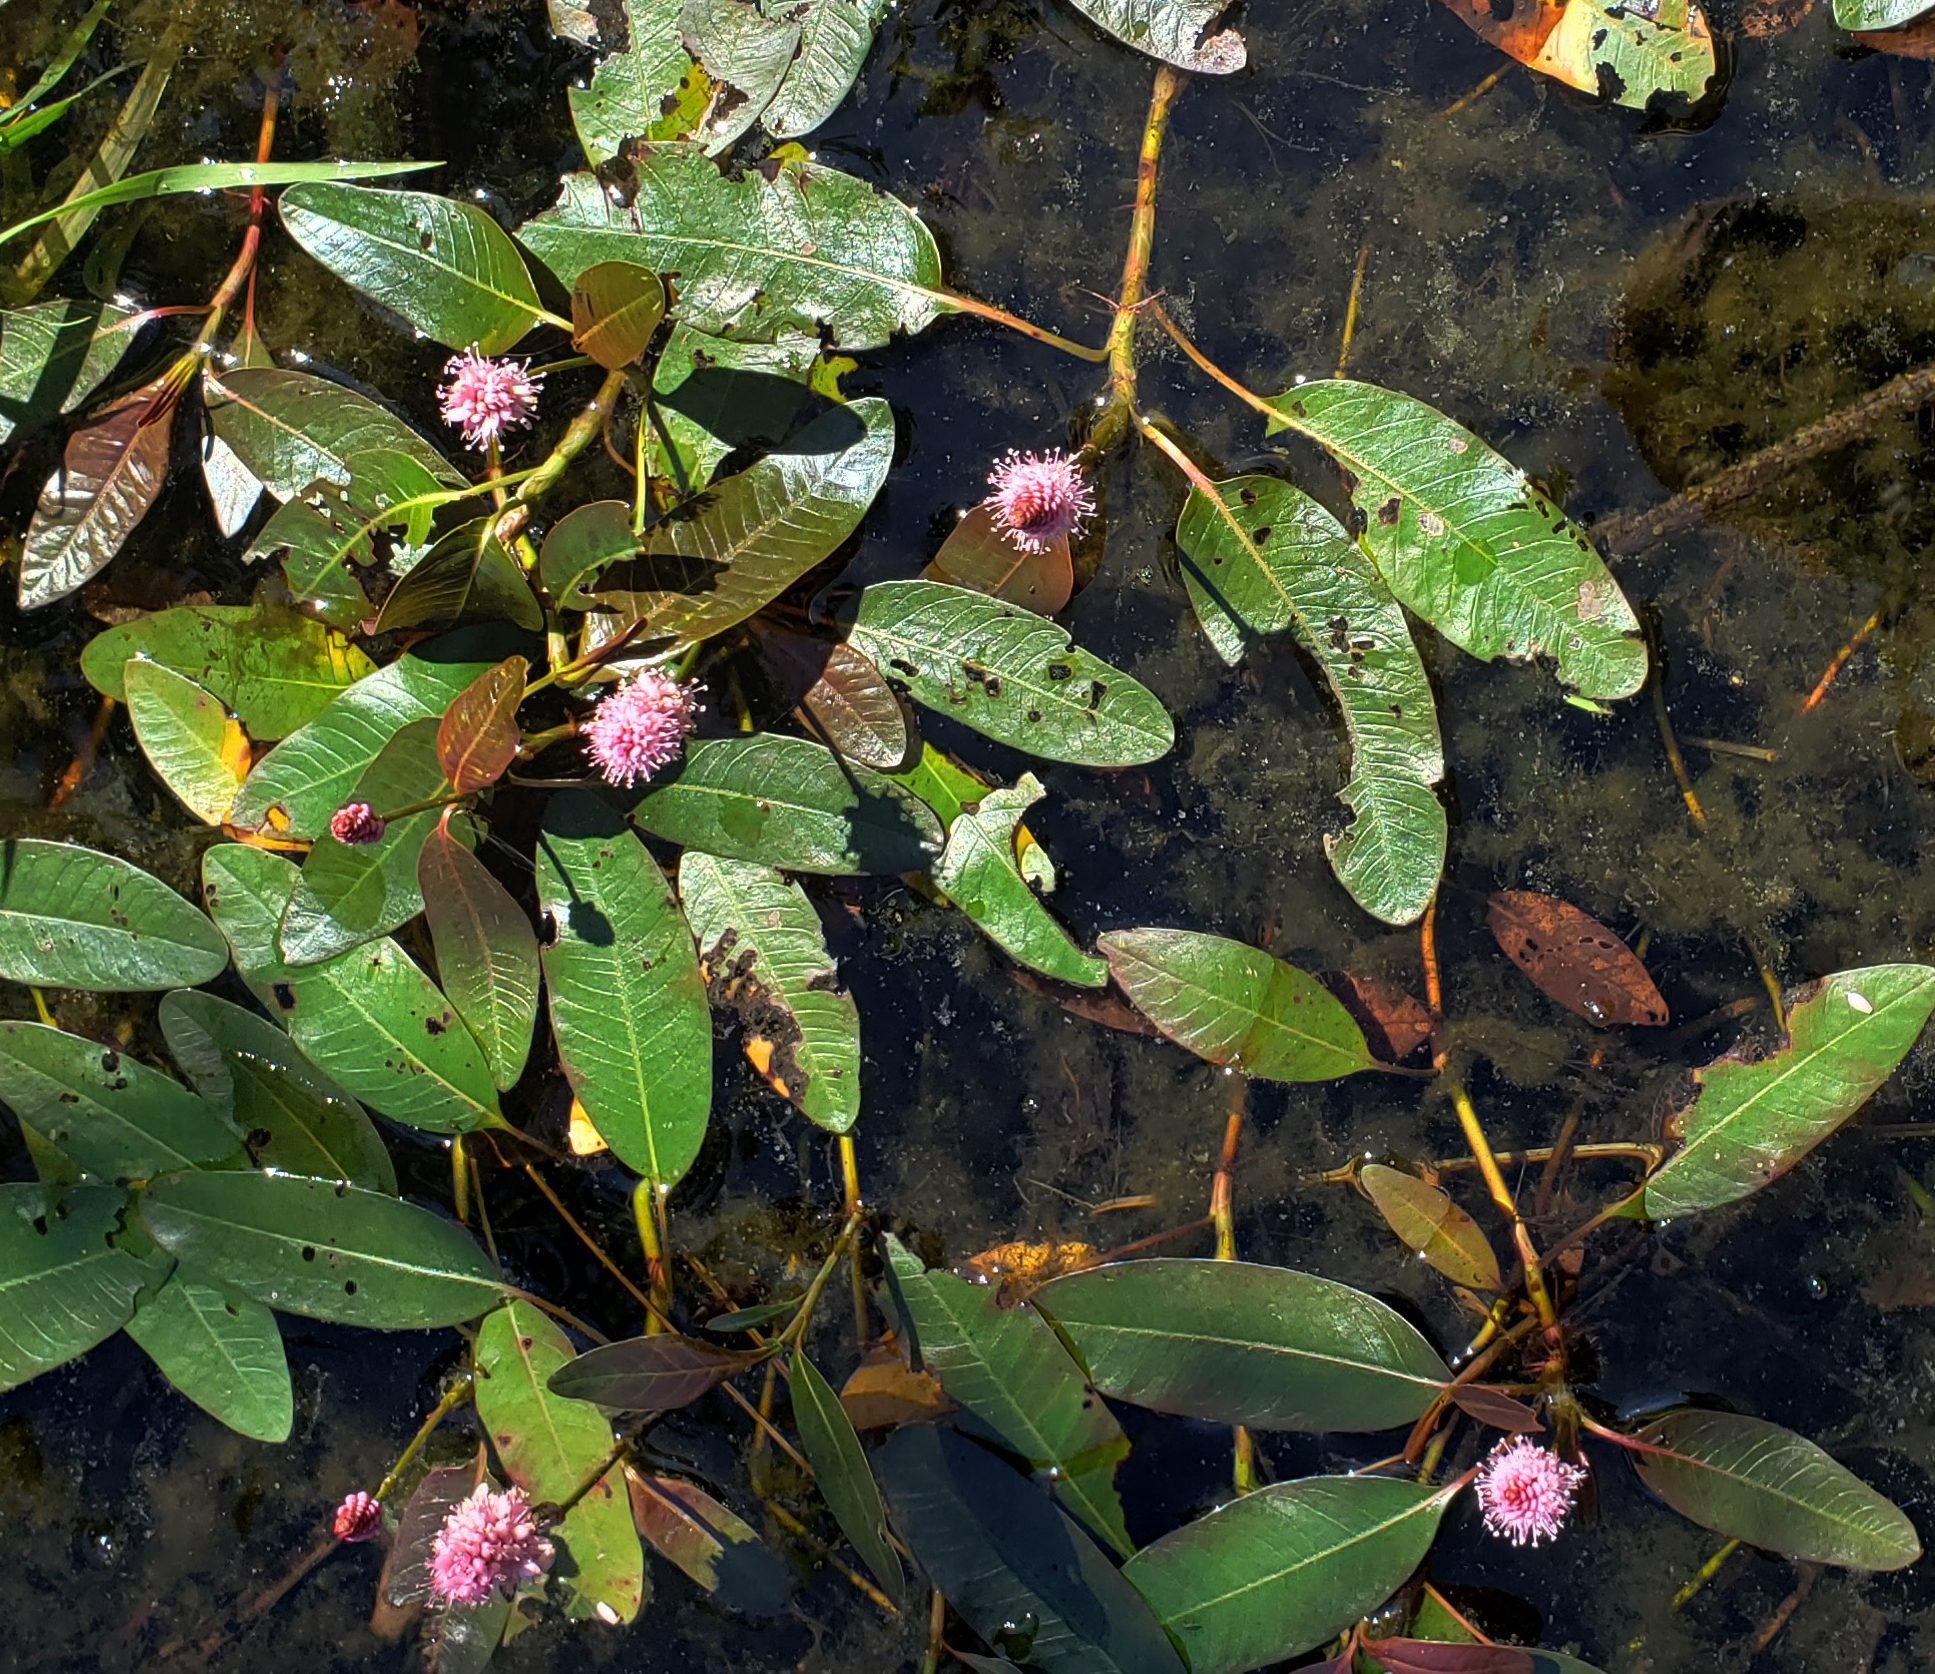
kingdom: Plantae
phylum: Tracheophyta
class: Magnoliopsida
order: Caryophyllales
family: Polygonaceae
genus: Persicaria
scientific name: Persicaria amphibia
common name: Amphibious bistort
